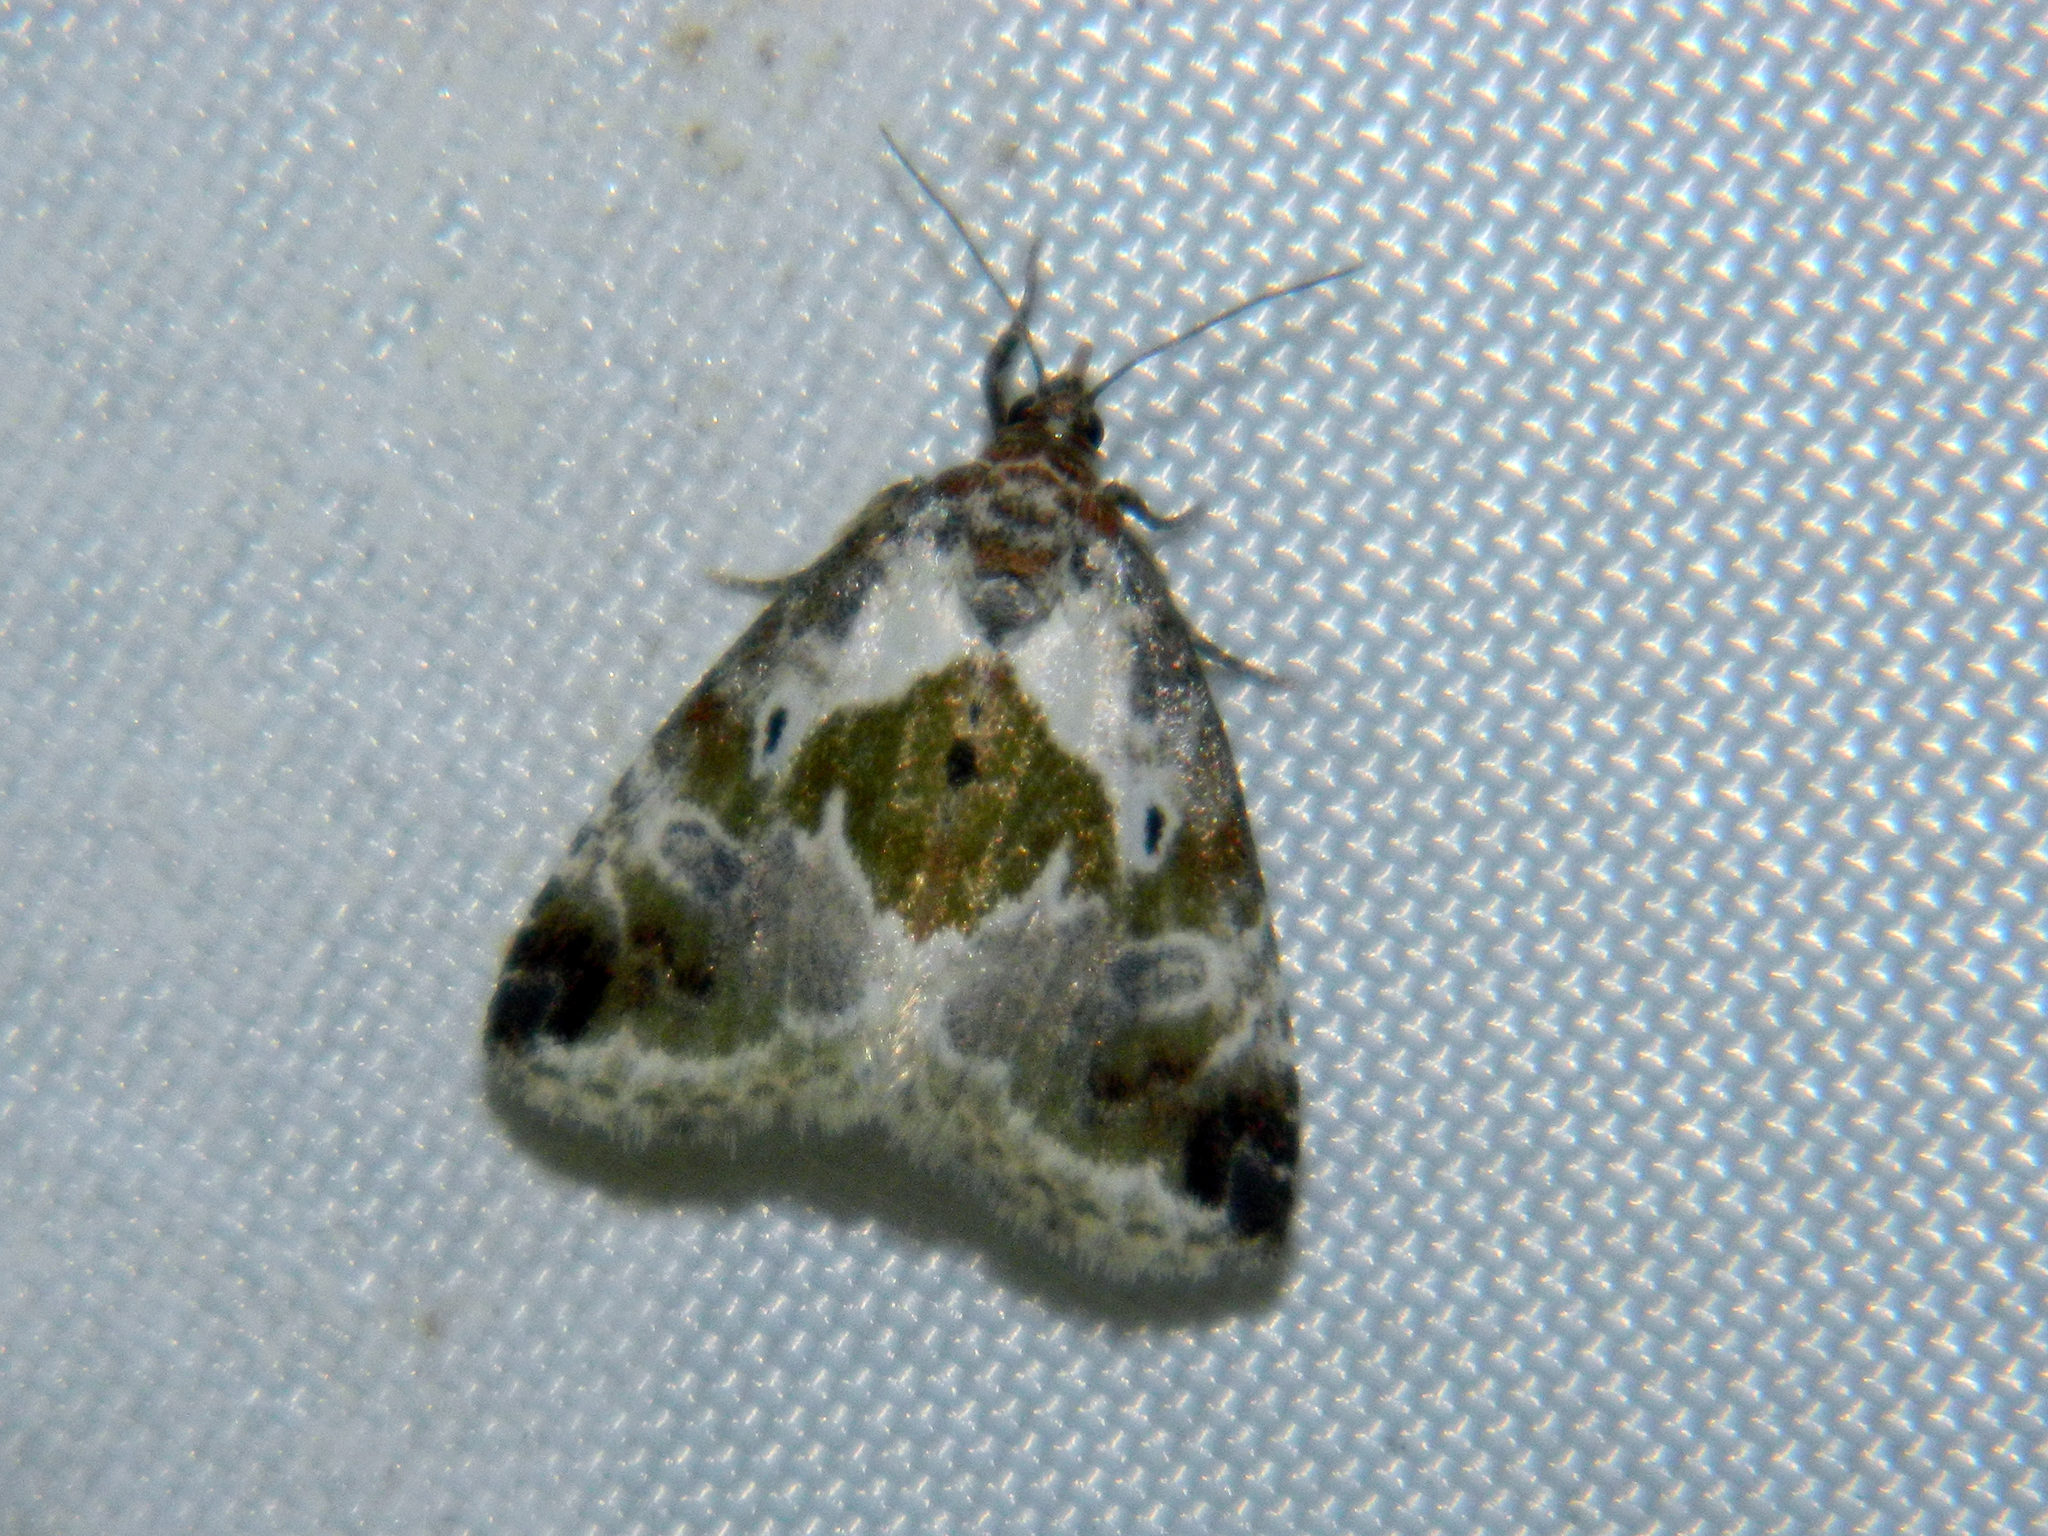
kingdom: Animalia
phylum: Arthropoda
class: Insecta
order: Lepidoptera
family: Noctuidae
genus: Maliattha
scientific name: Maliattha synochitis
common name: Black-dotted glyph
